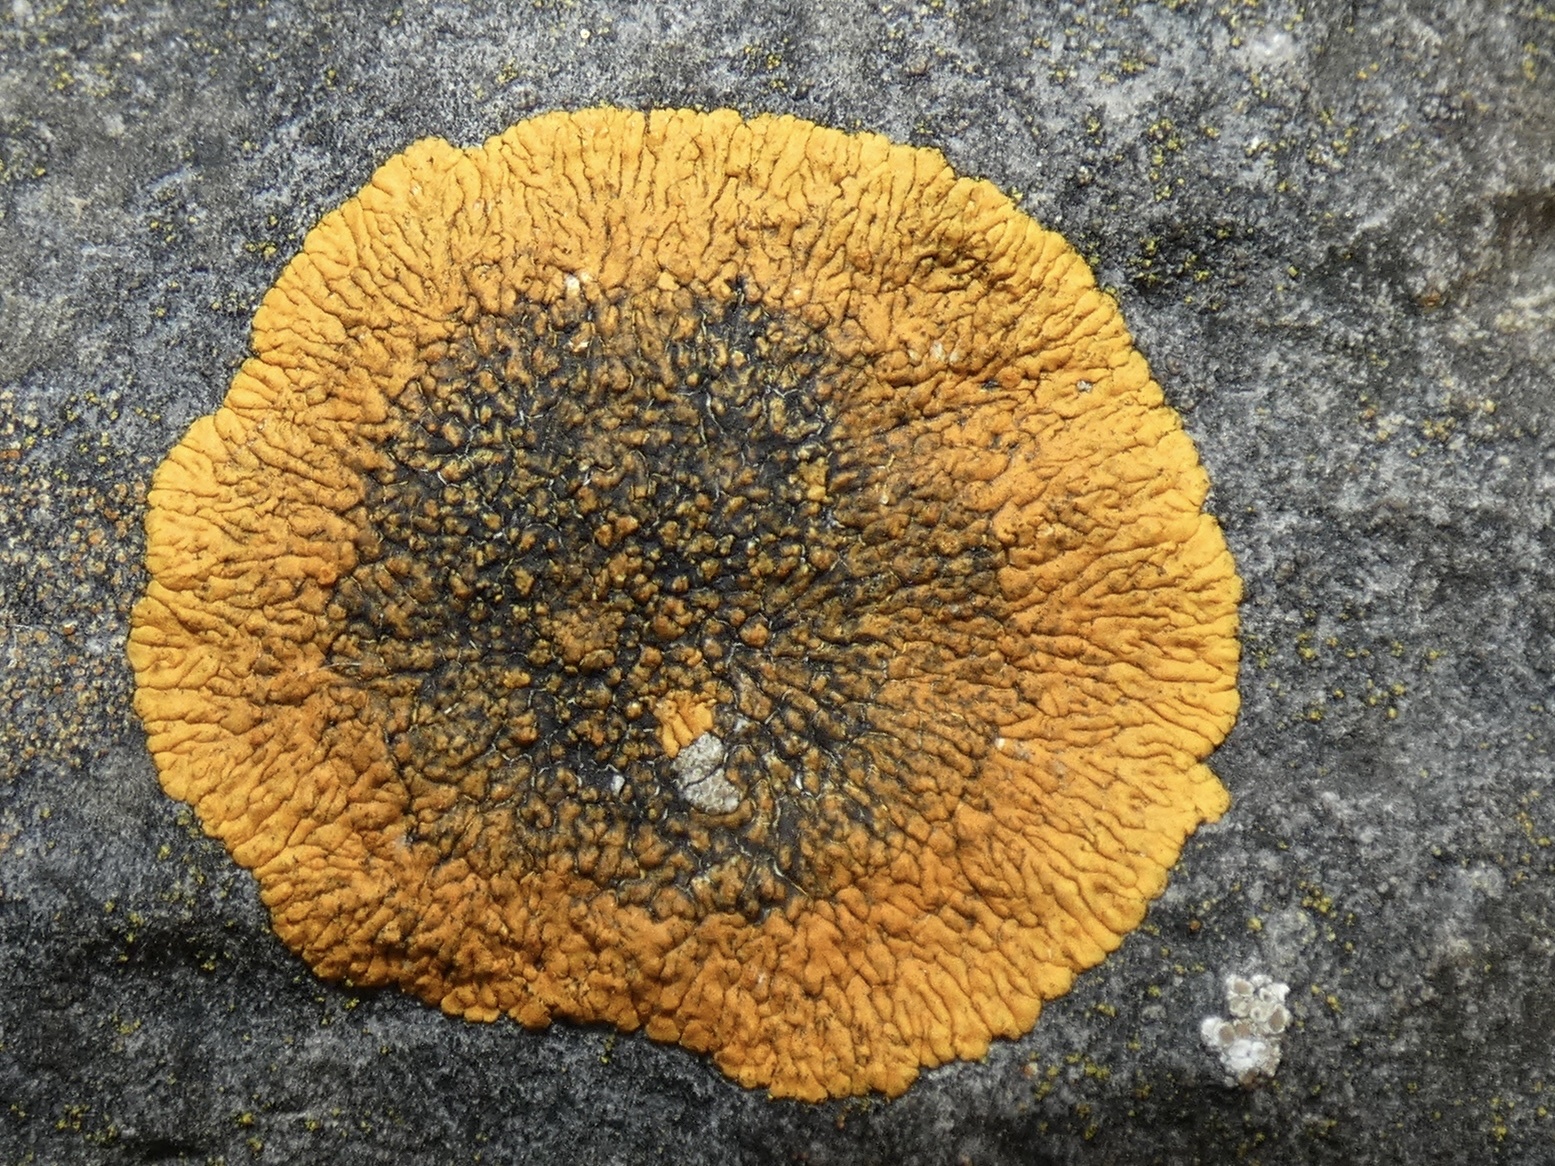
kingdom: Fungi
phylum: Ascomycota
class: Lecanoromycetes
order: Teloschistales
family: Teloschistaceae
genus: Variospora
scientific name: Variospora flavescens
